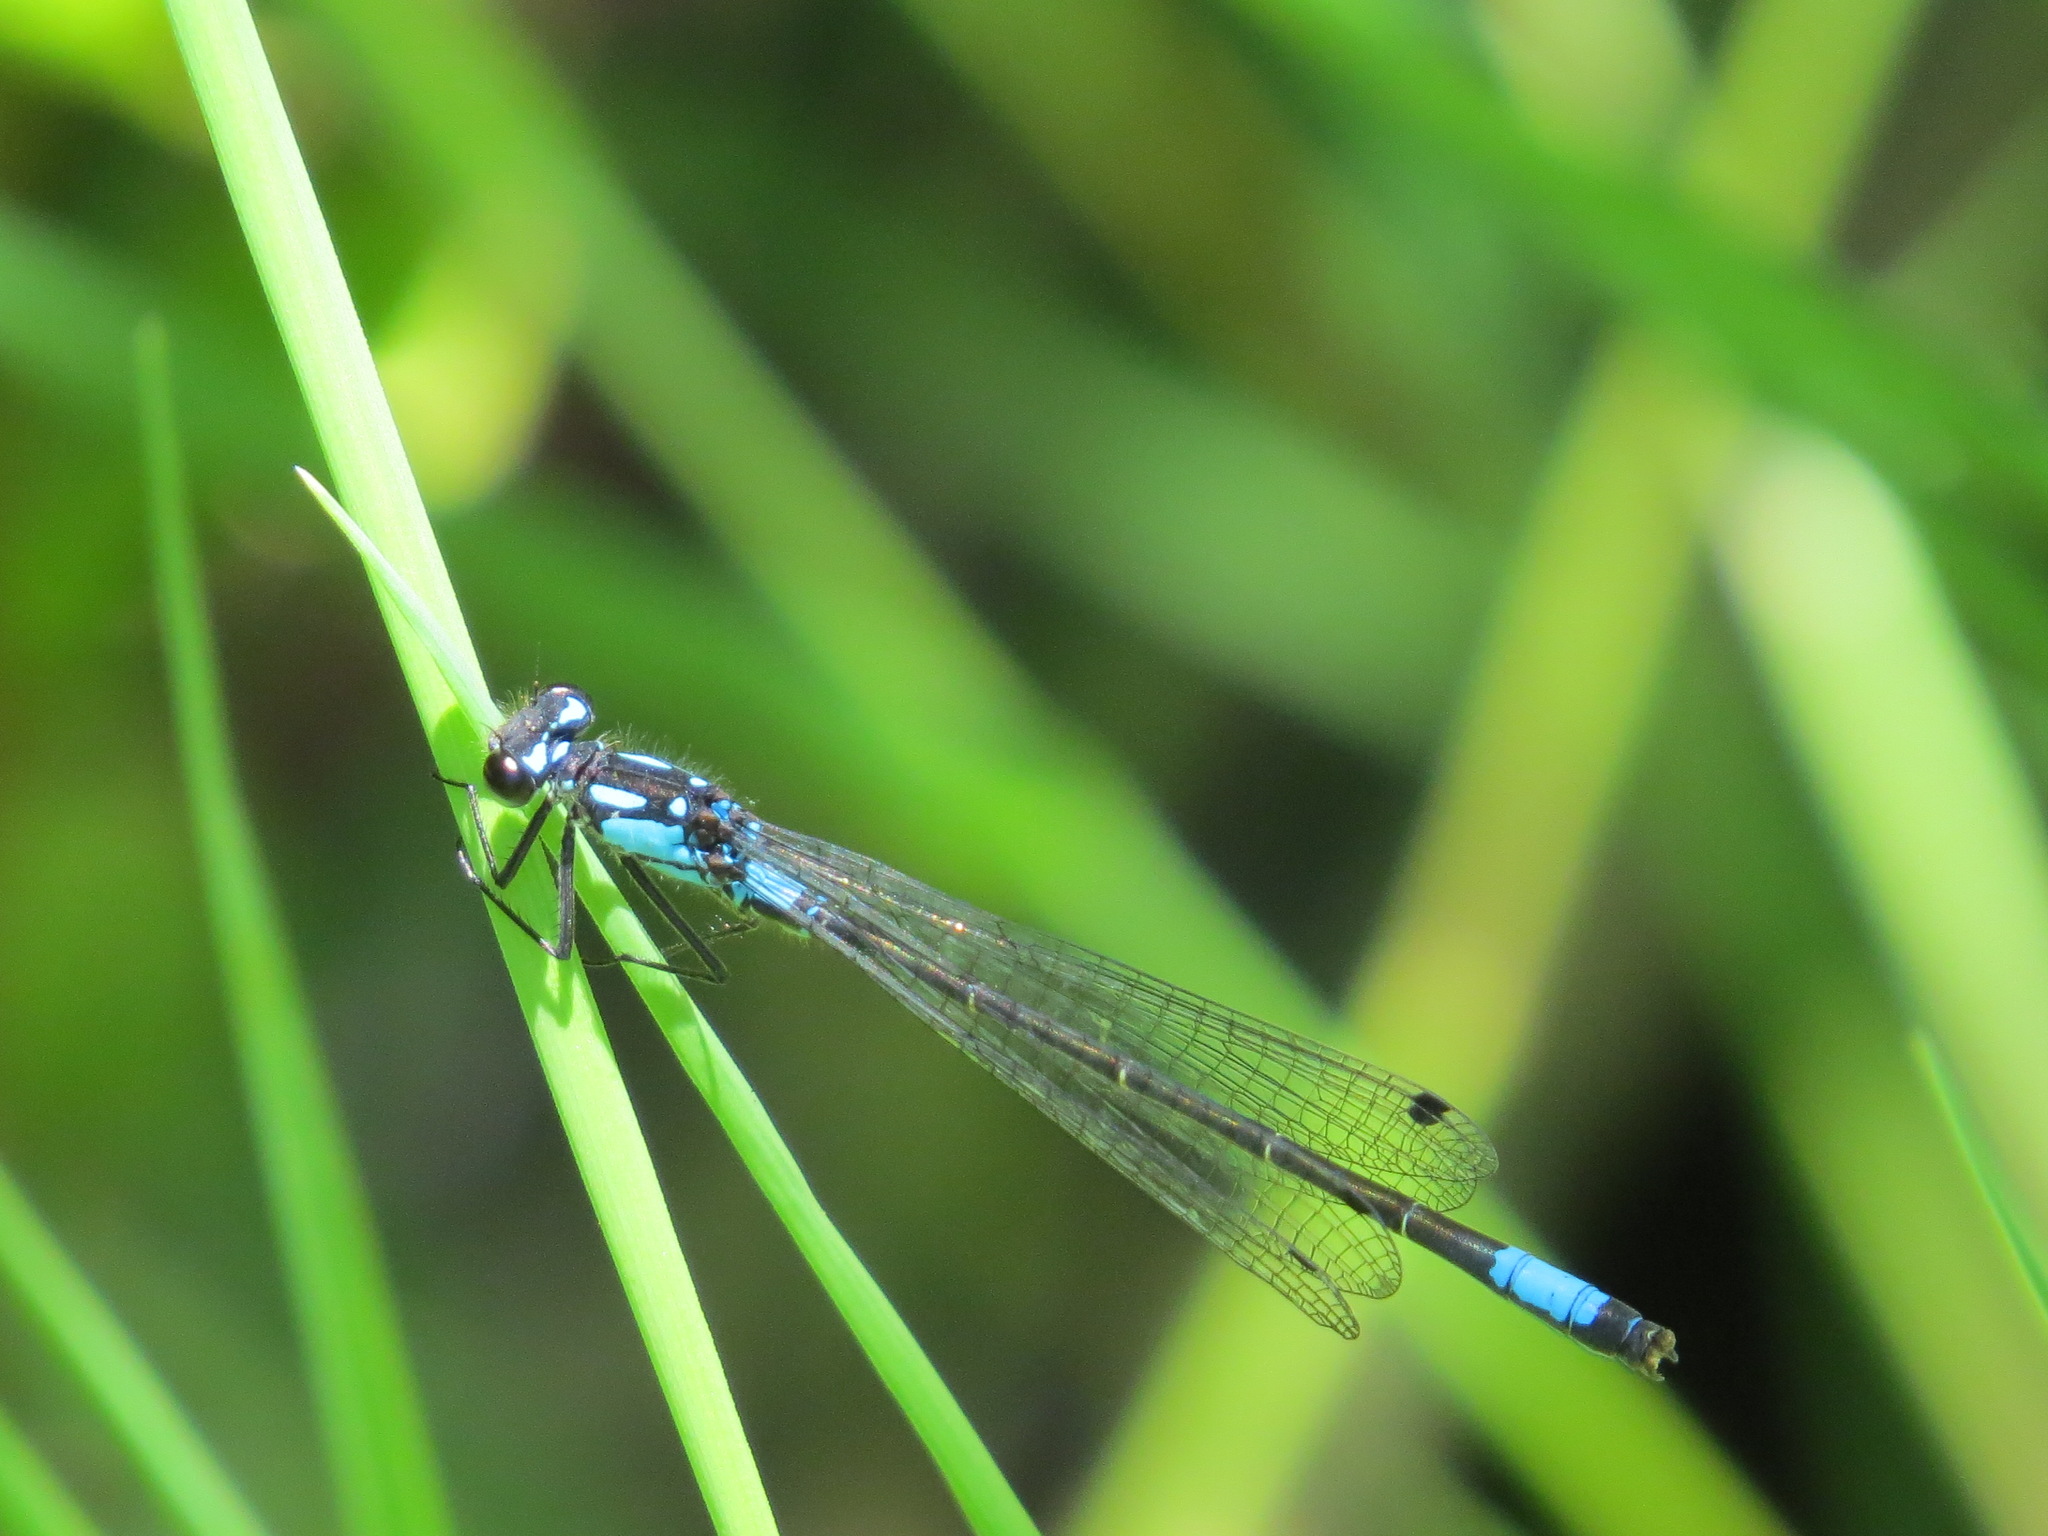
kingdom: Animalia
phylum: Arthropoda
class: Insecta
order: Odonata
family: Coenagrionidae
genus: Zoniagrion
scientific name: Zoniagrion exclamationis
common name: Exclamation damsel
